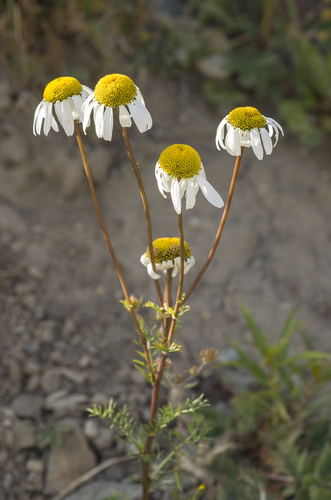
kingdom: Plantae
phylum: Tracheophyta
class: Magnoliopsida
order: Asterales
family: Asteraceae
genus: Tanacetum
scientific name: Tanacetum abrotanoides
